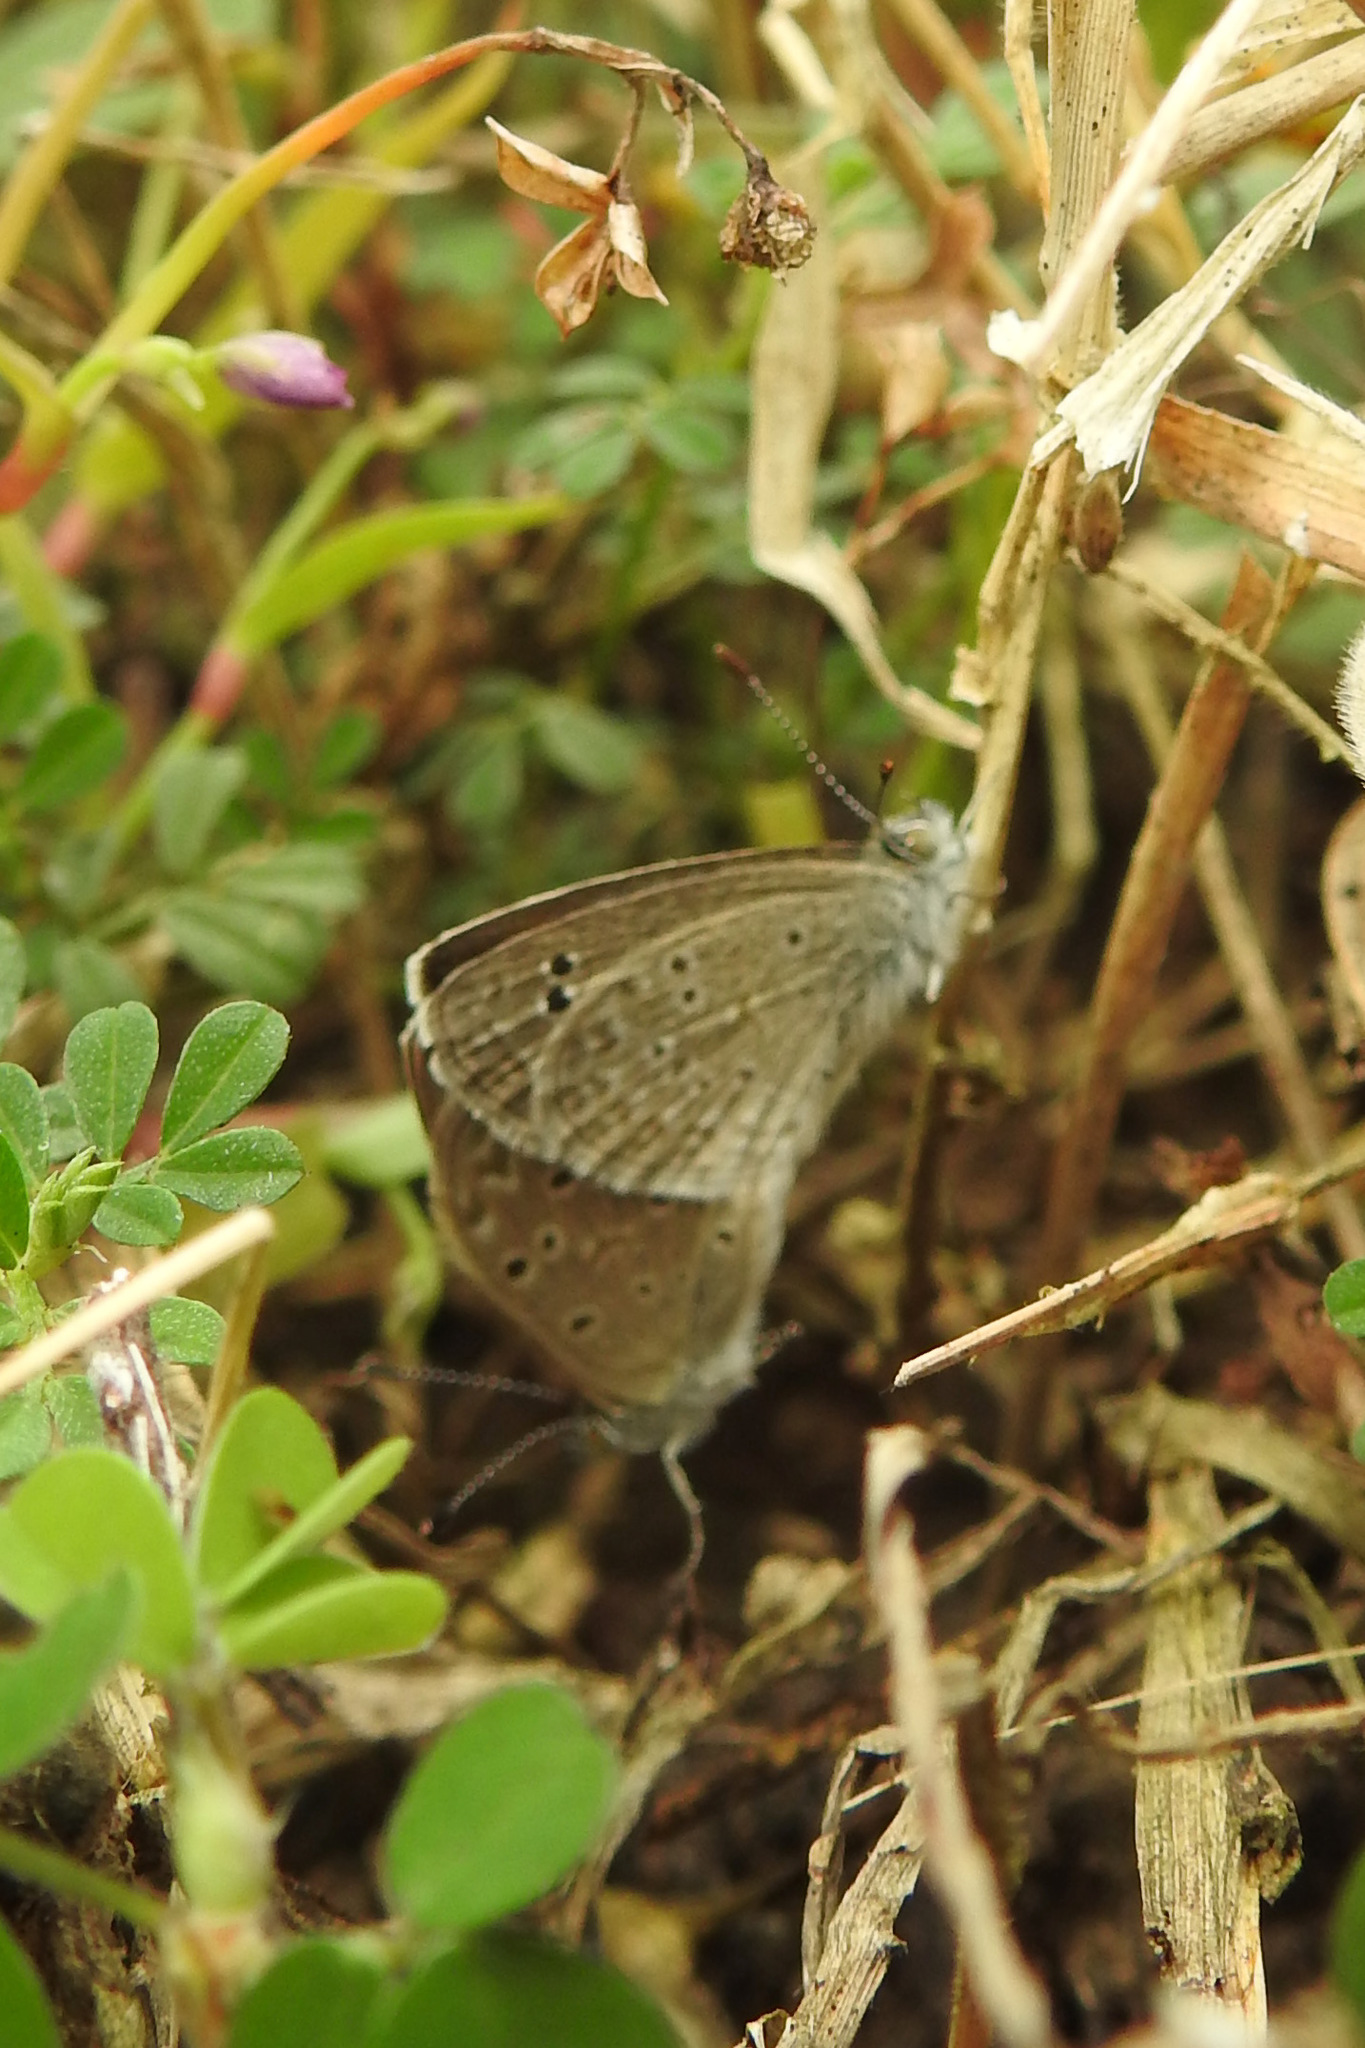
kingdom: Animalia
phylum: Arthropoda
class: Insecta
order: Lepidoptera
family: Lycaenidae
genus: Zizina
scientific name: Zizina otis
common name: Lesser grass blue
